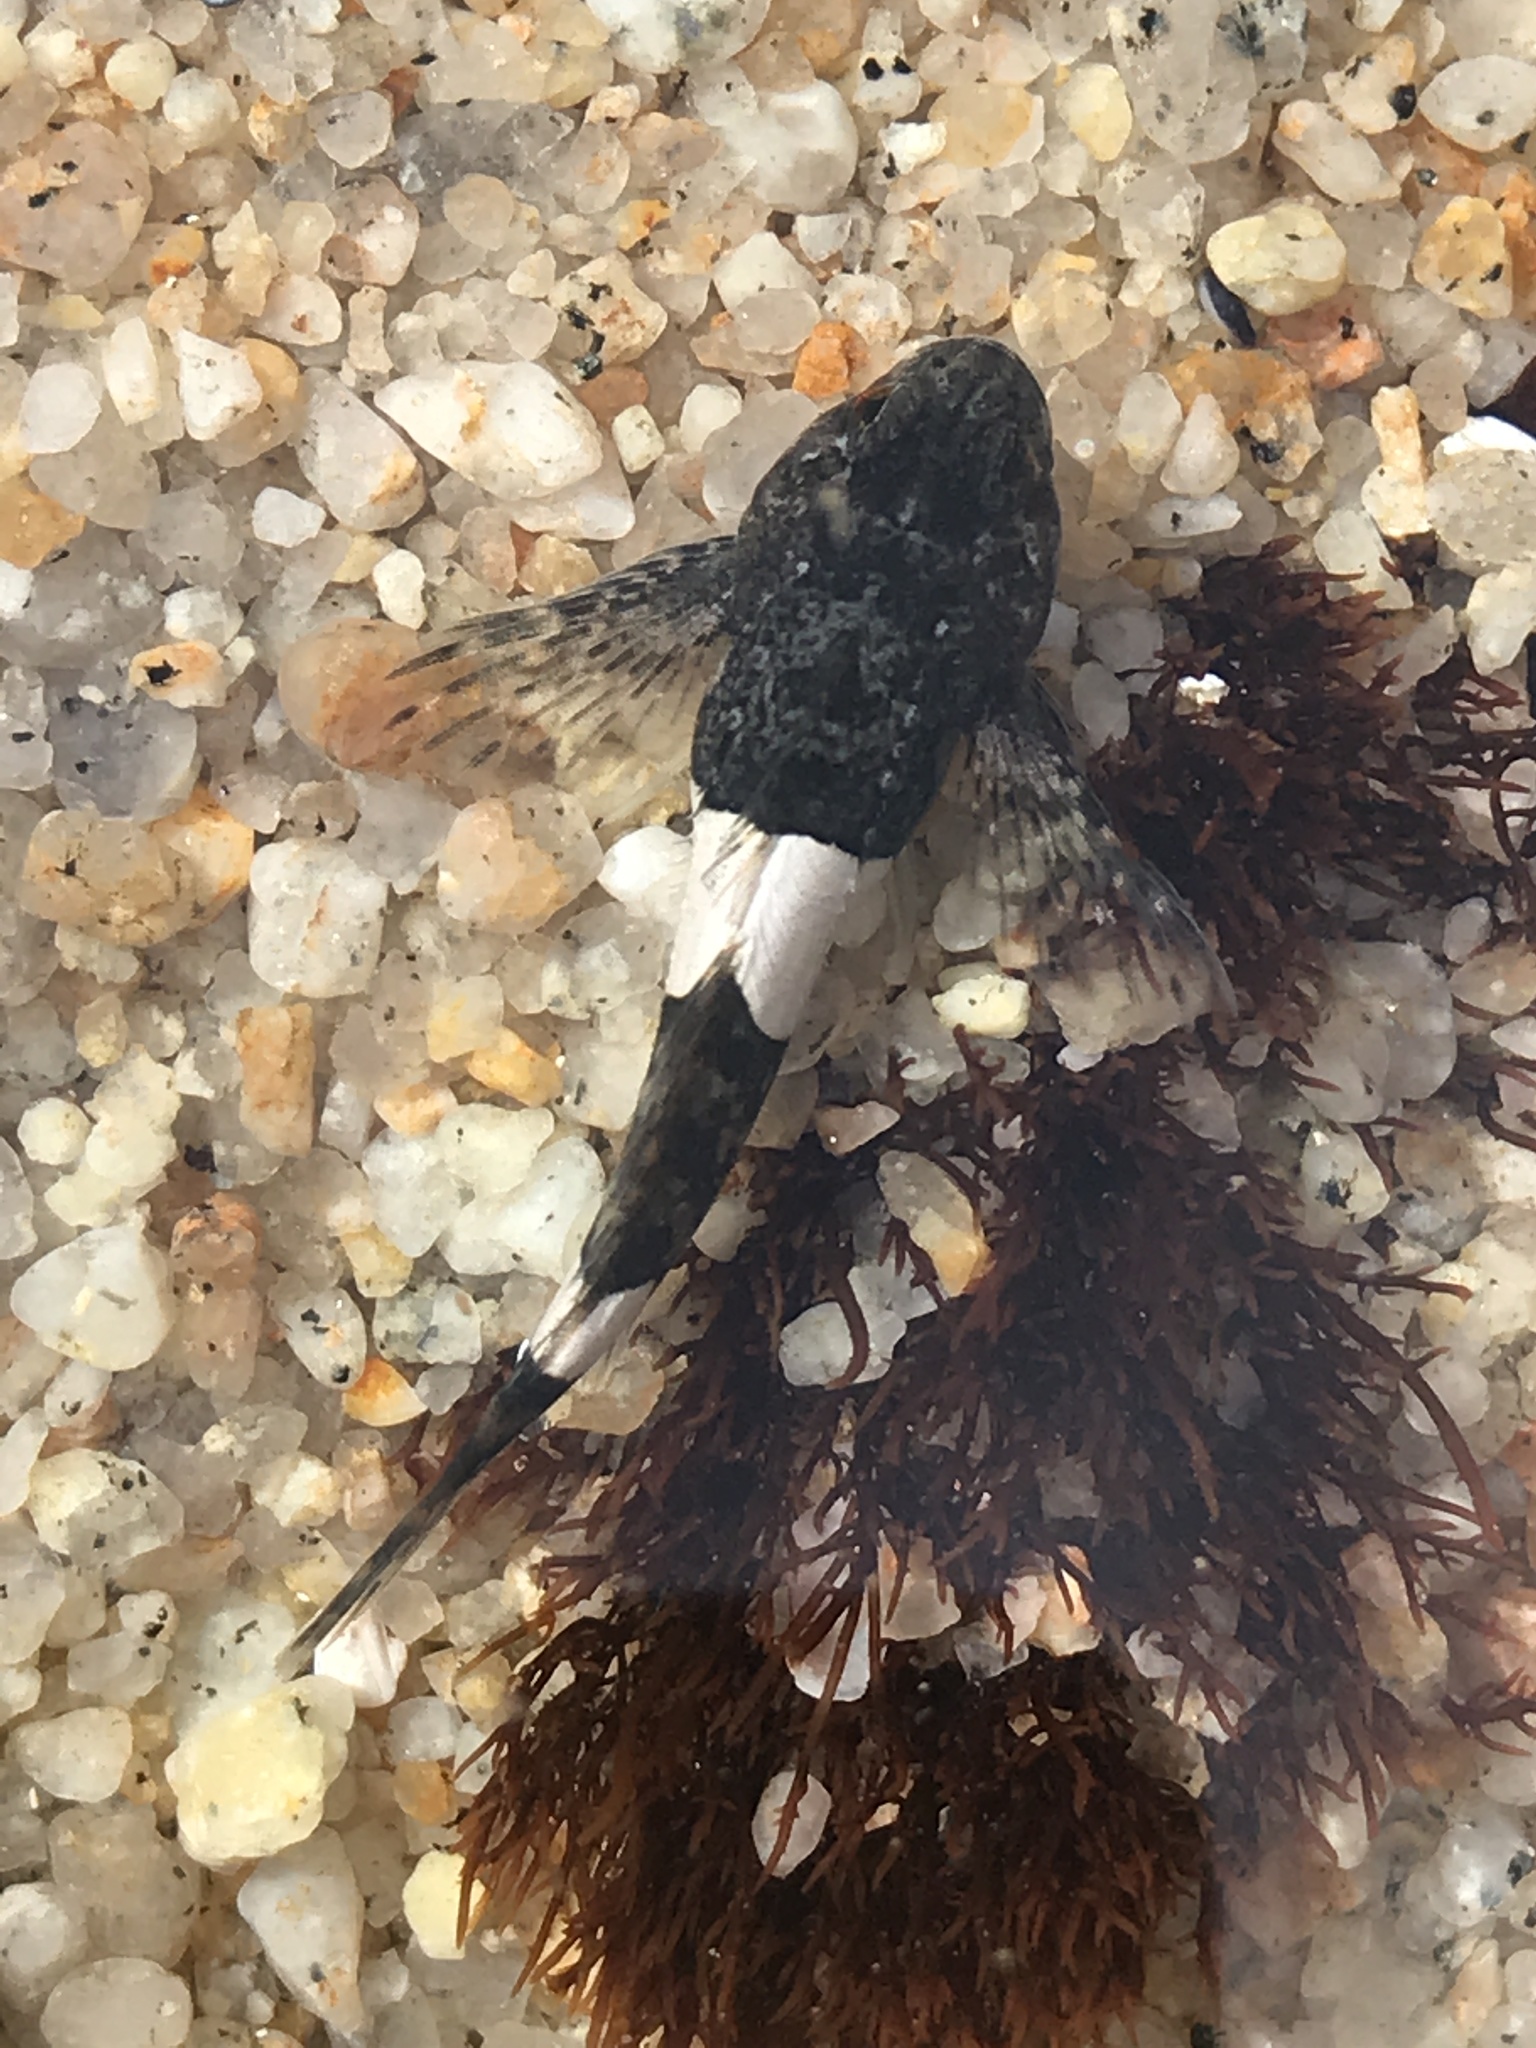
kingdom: Animalia
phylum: Chordata
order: Scorpaeniformes
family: Cottidae
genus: Clinocottus
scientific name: Clinocottus globiceps
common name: Mosshead sculpin
